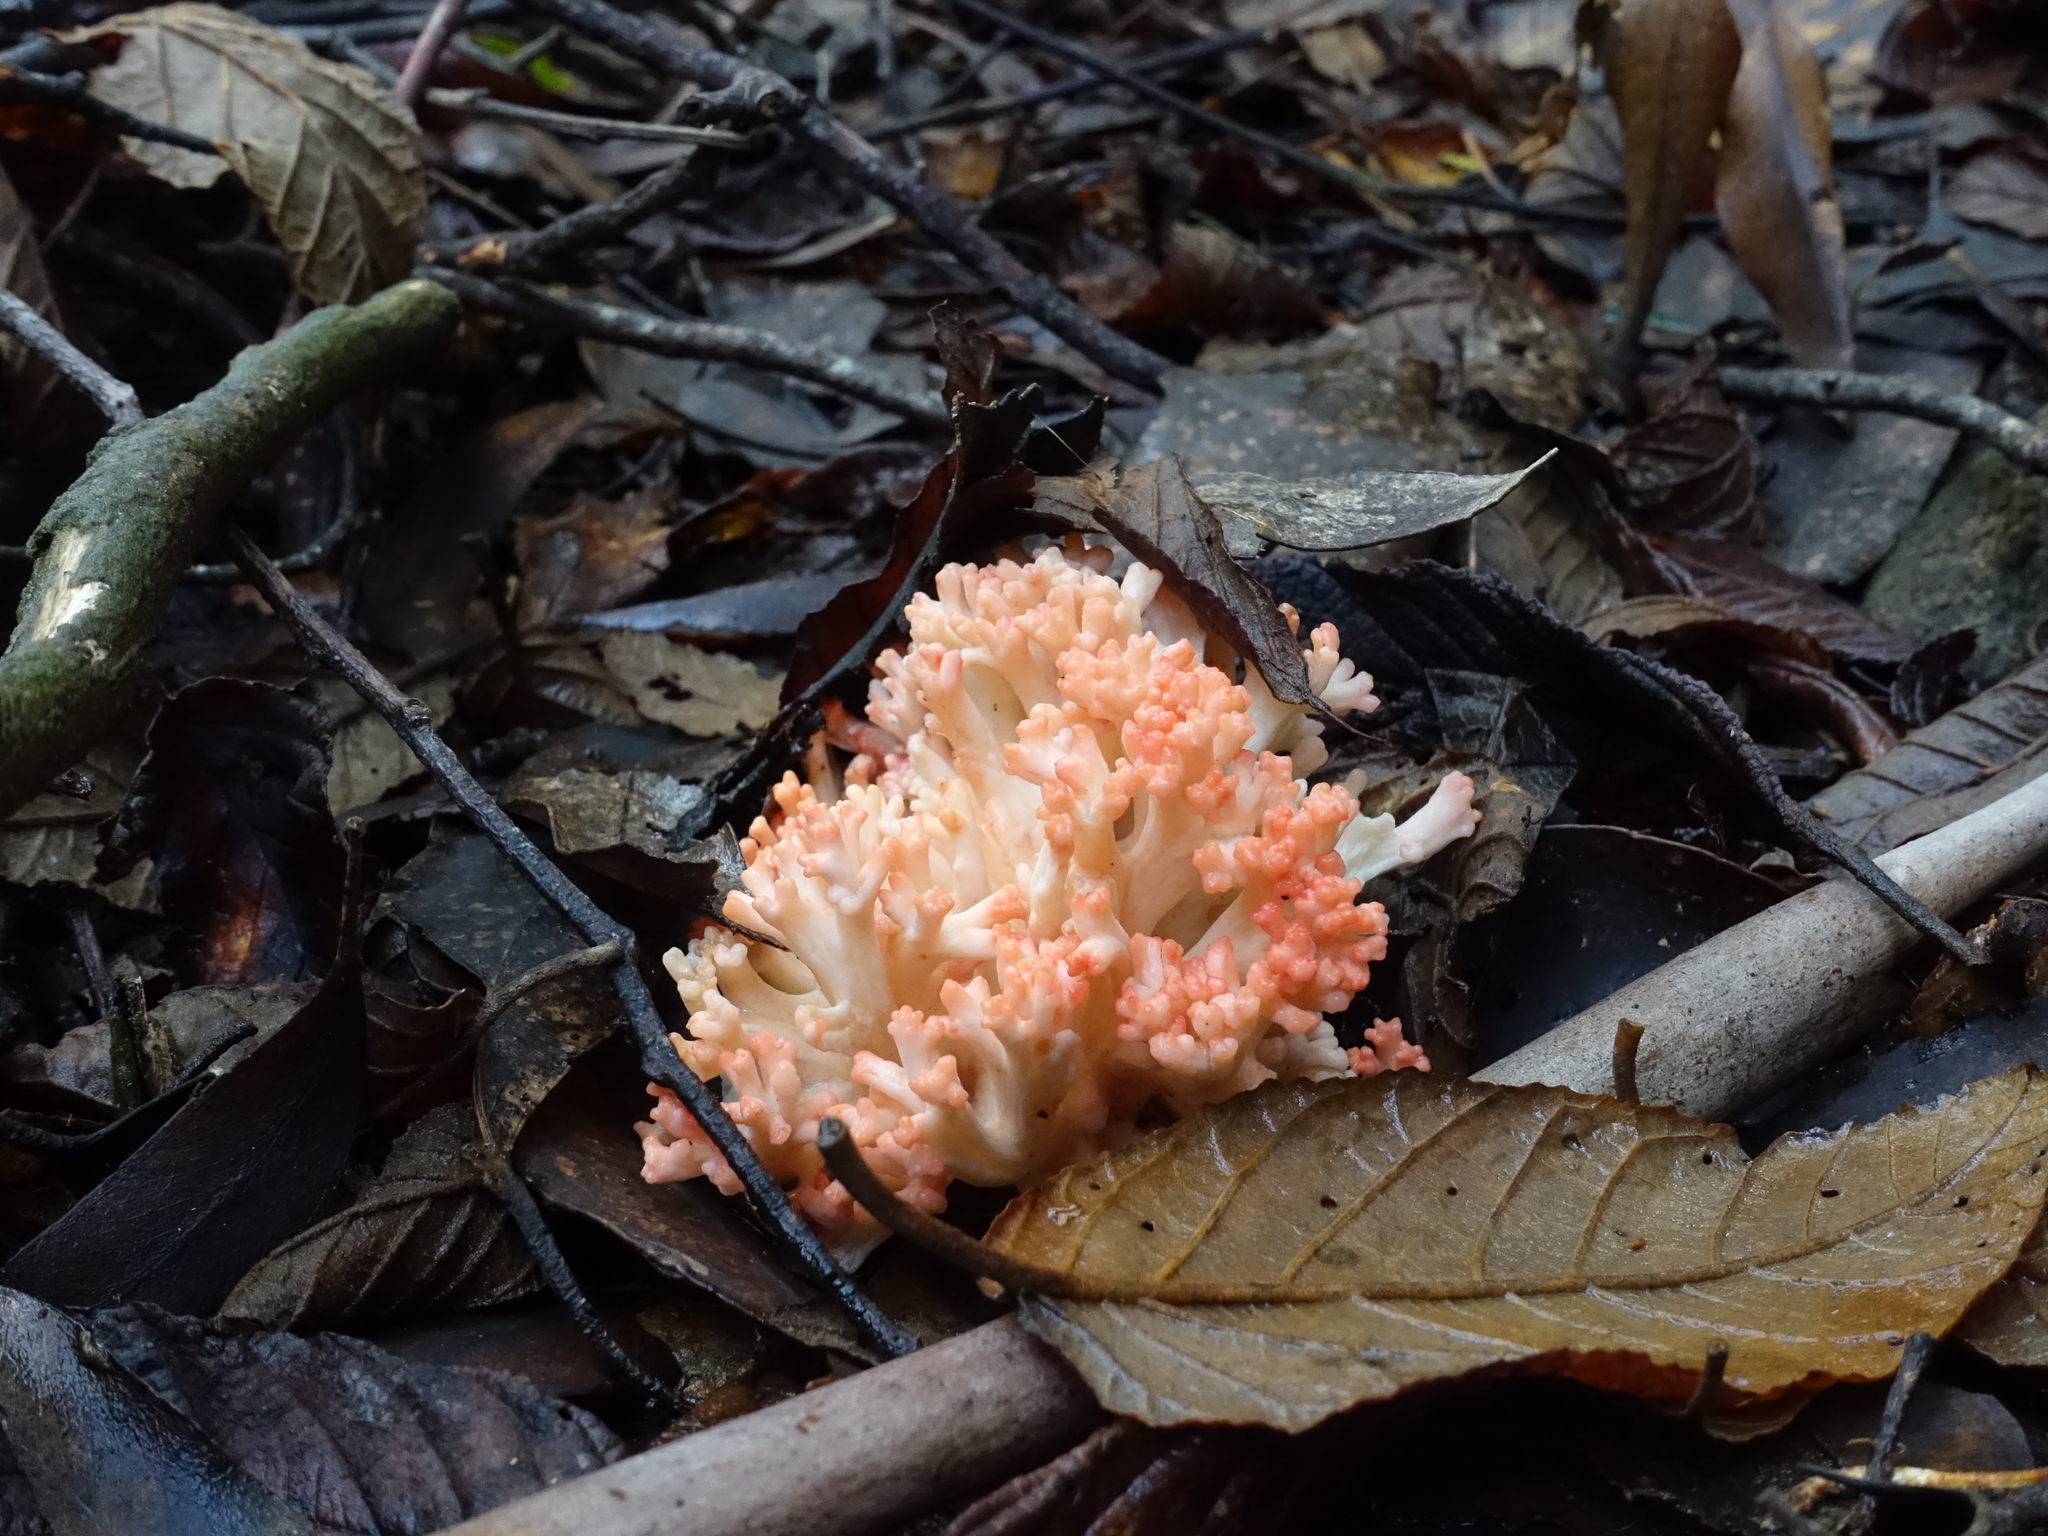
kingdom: Fungi
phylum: Basidiomycota
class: Agaricomycetes
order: Gomphales
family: Gomphaceae
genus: Ramaria
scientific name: Ramaria capitata
